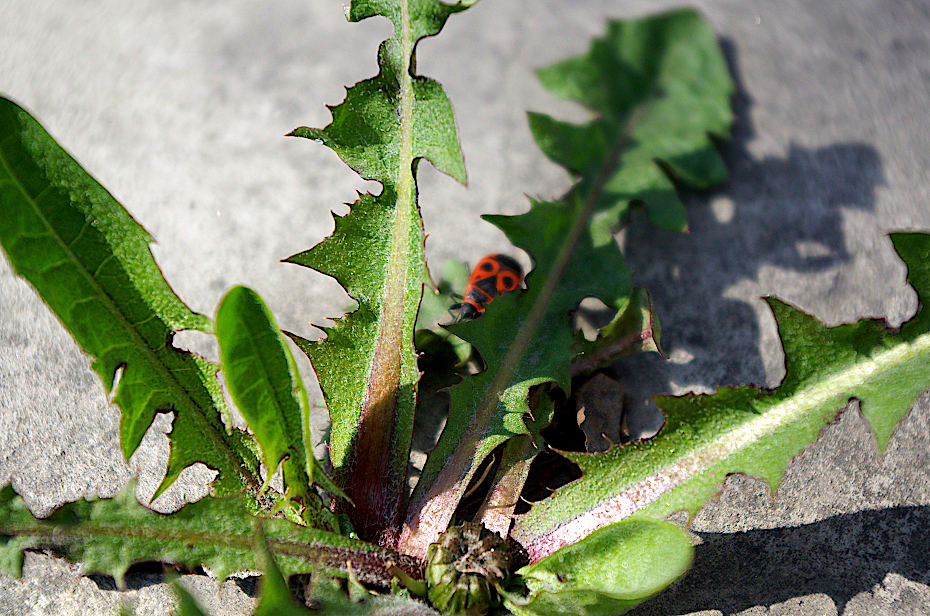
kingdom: Plantae
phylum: Tracheophyta
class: Magnoliopsida
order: Asterales
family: Asteraceae
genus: Taraxacum
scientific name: Taraxacum officinale
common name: Common dandelion
